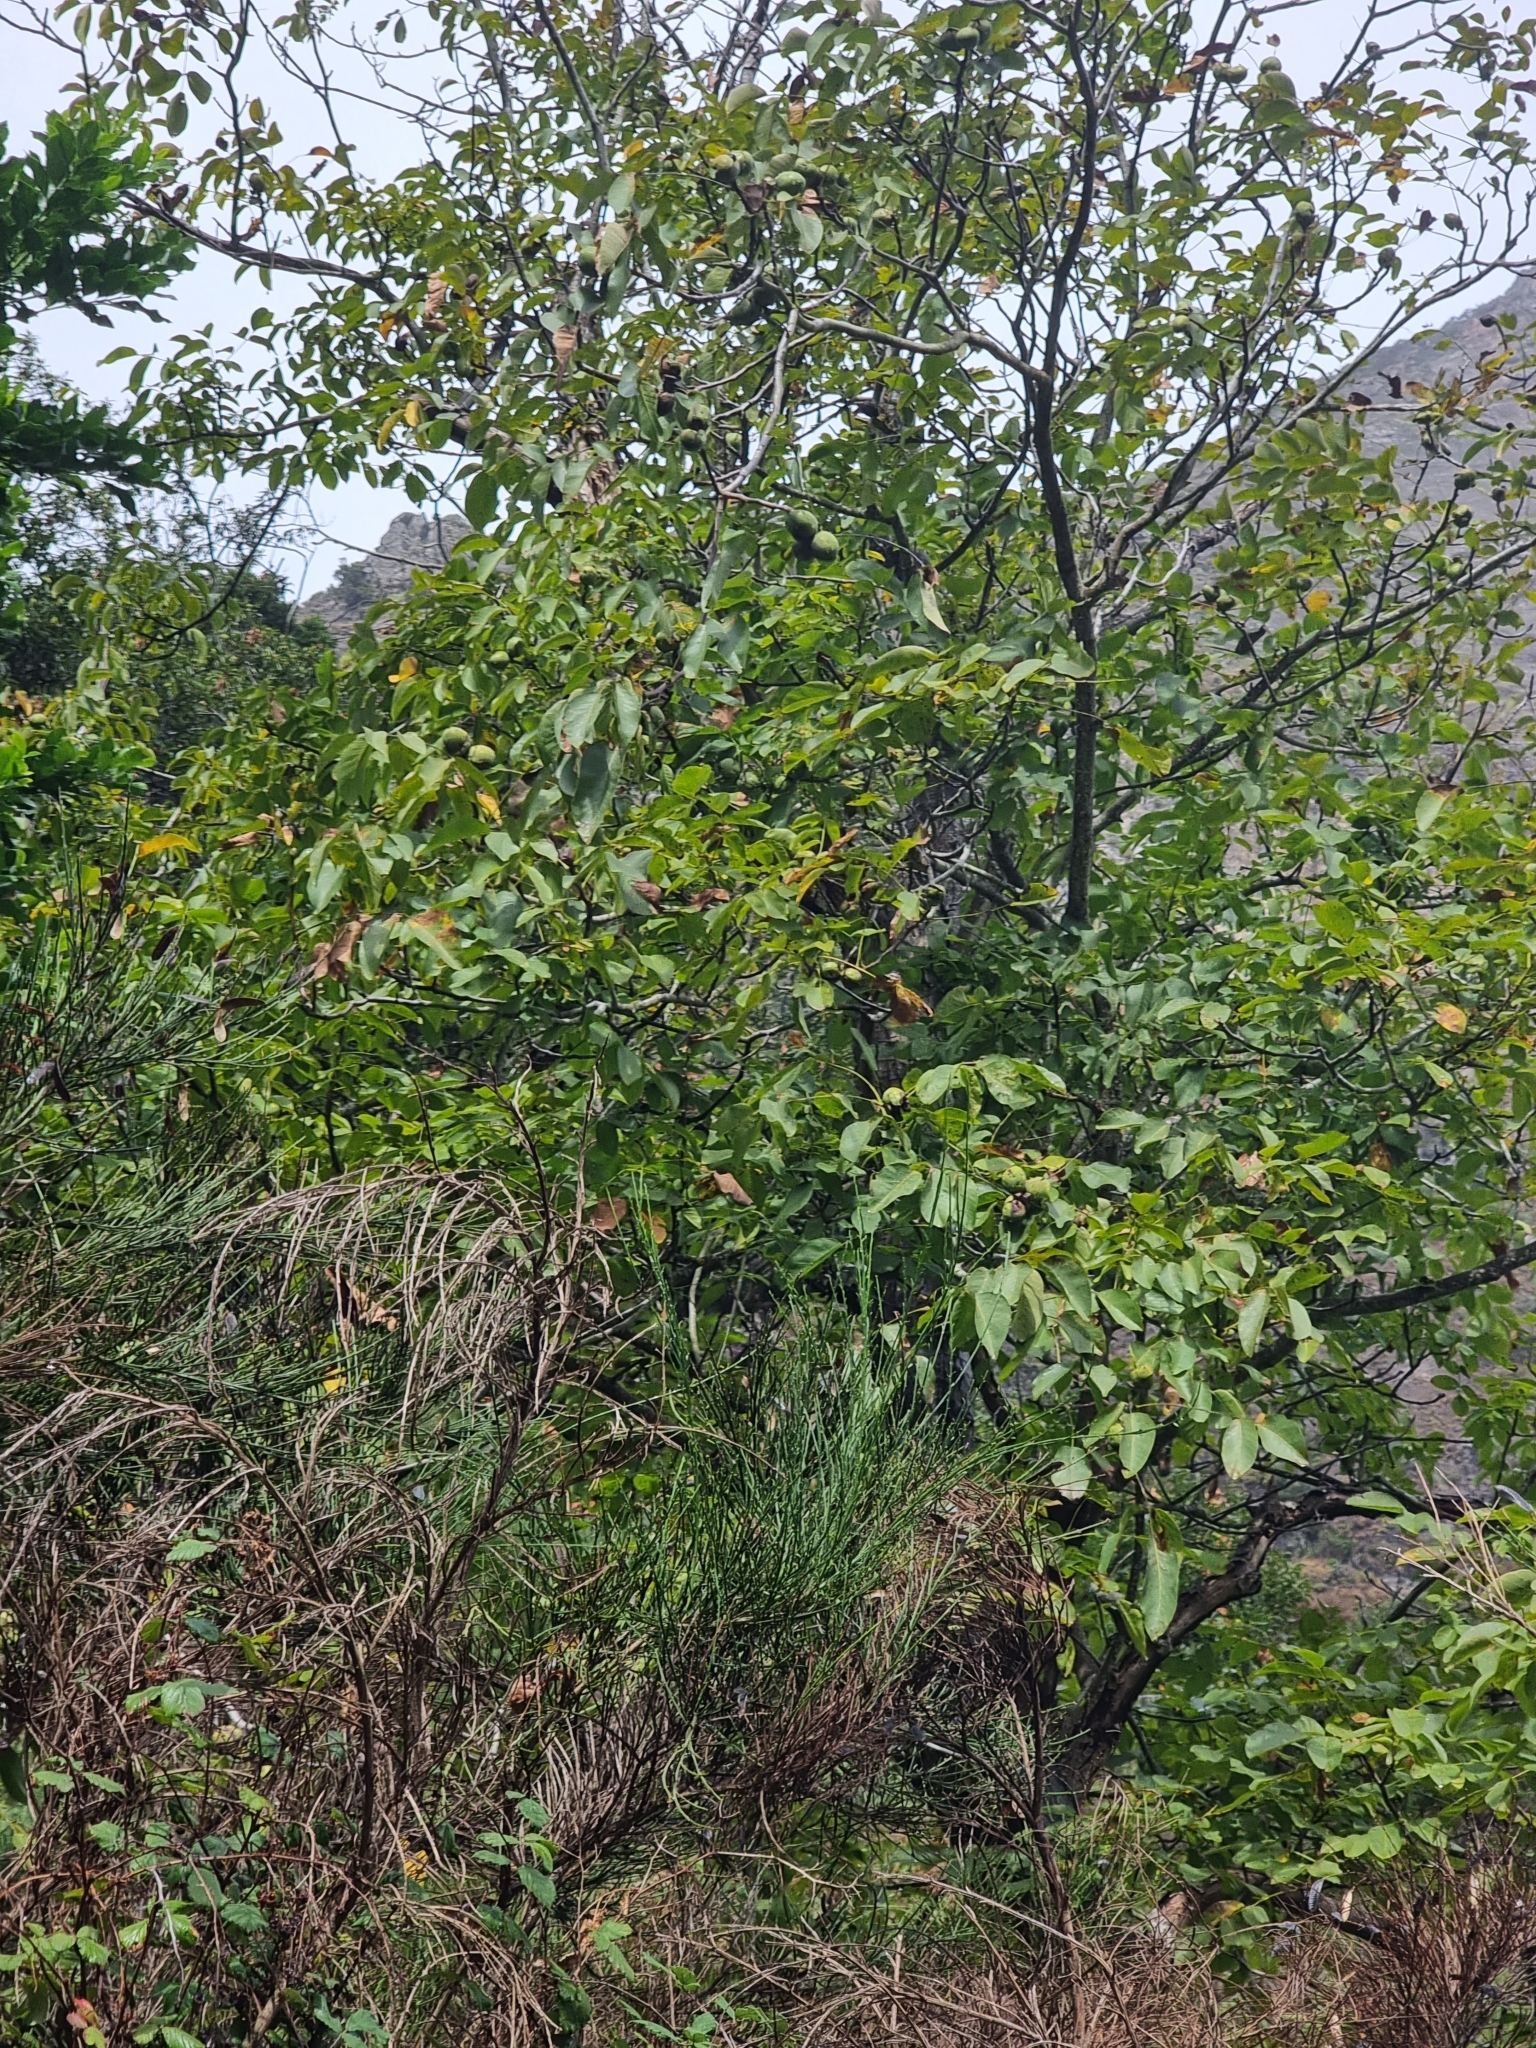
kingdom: Plantae
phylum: Tracheophyta
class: Magnoliopsida
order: Fagales
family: Juglandaceae
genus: Juglans
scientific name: Juglans regia
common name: Walnut
